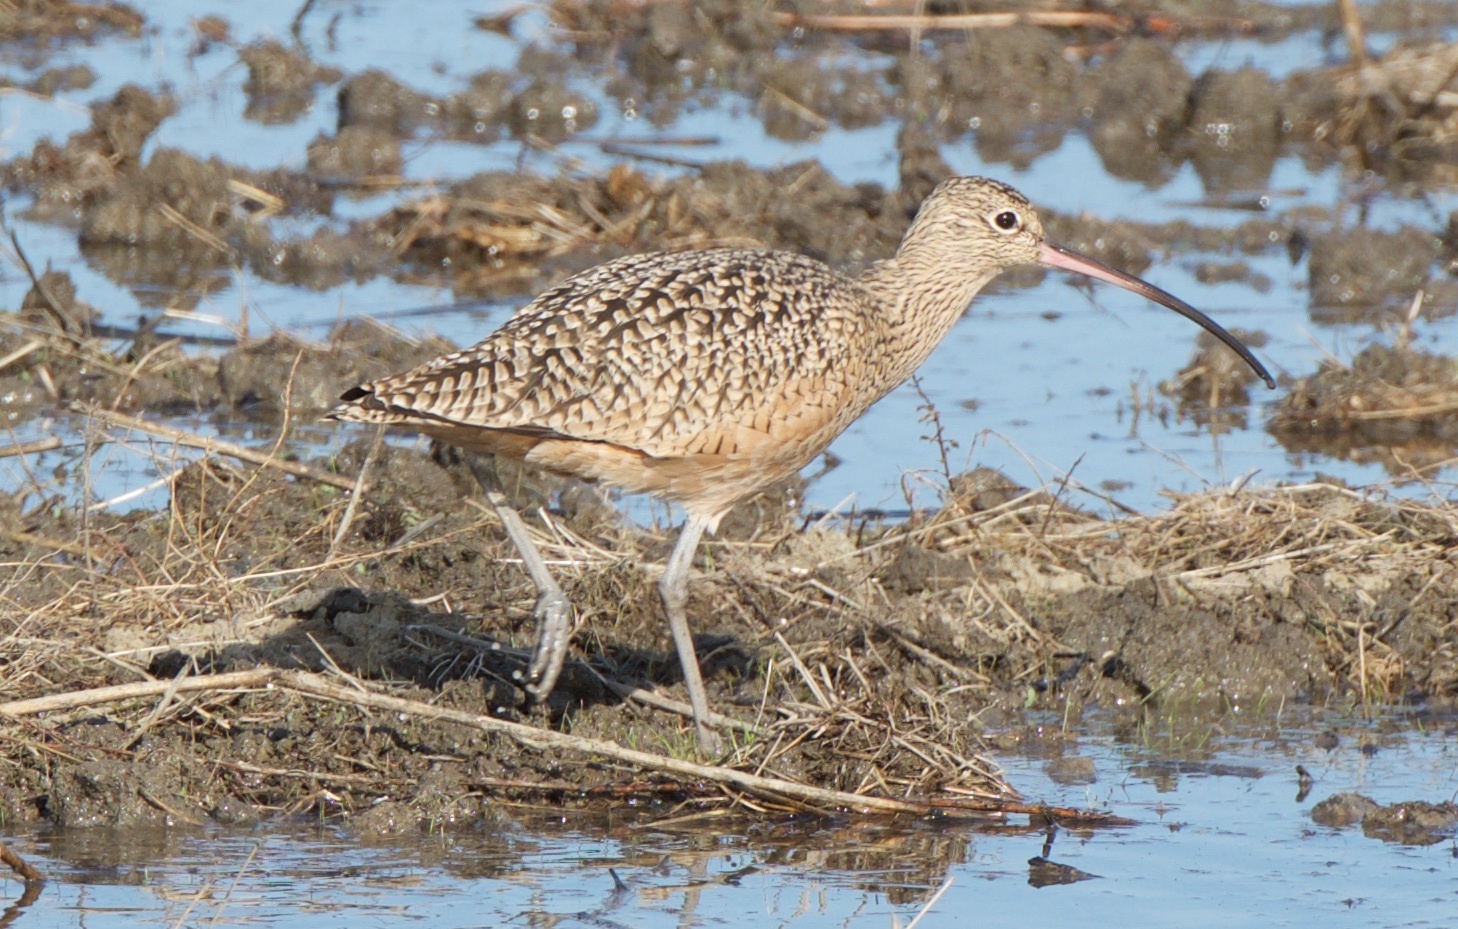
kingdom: Animalia
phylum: Chordata
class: Aves
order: Charadriiformes
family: Scolopacidae
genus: Numenius
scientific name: Numenius americanus
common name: Long-billed curlew
